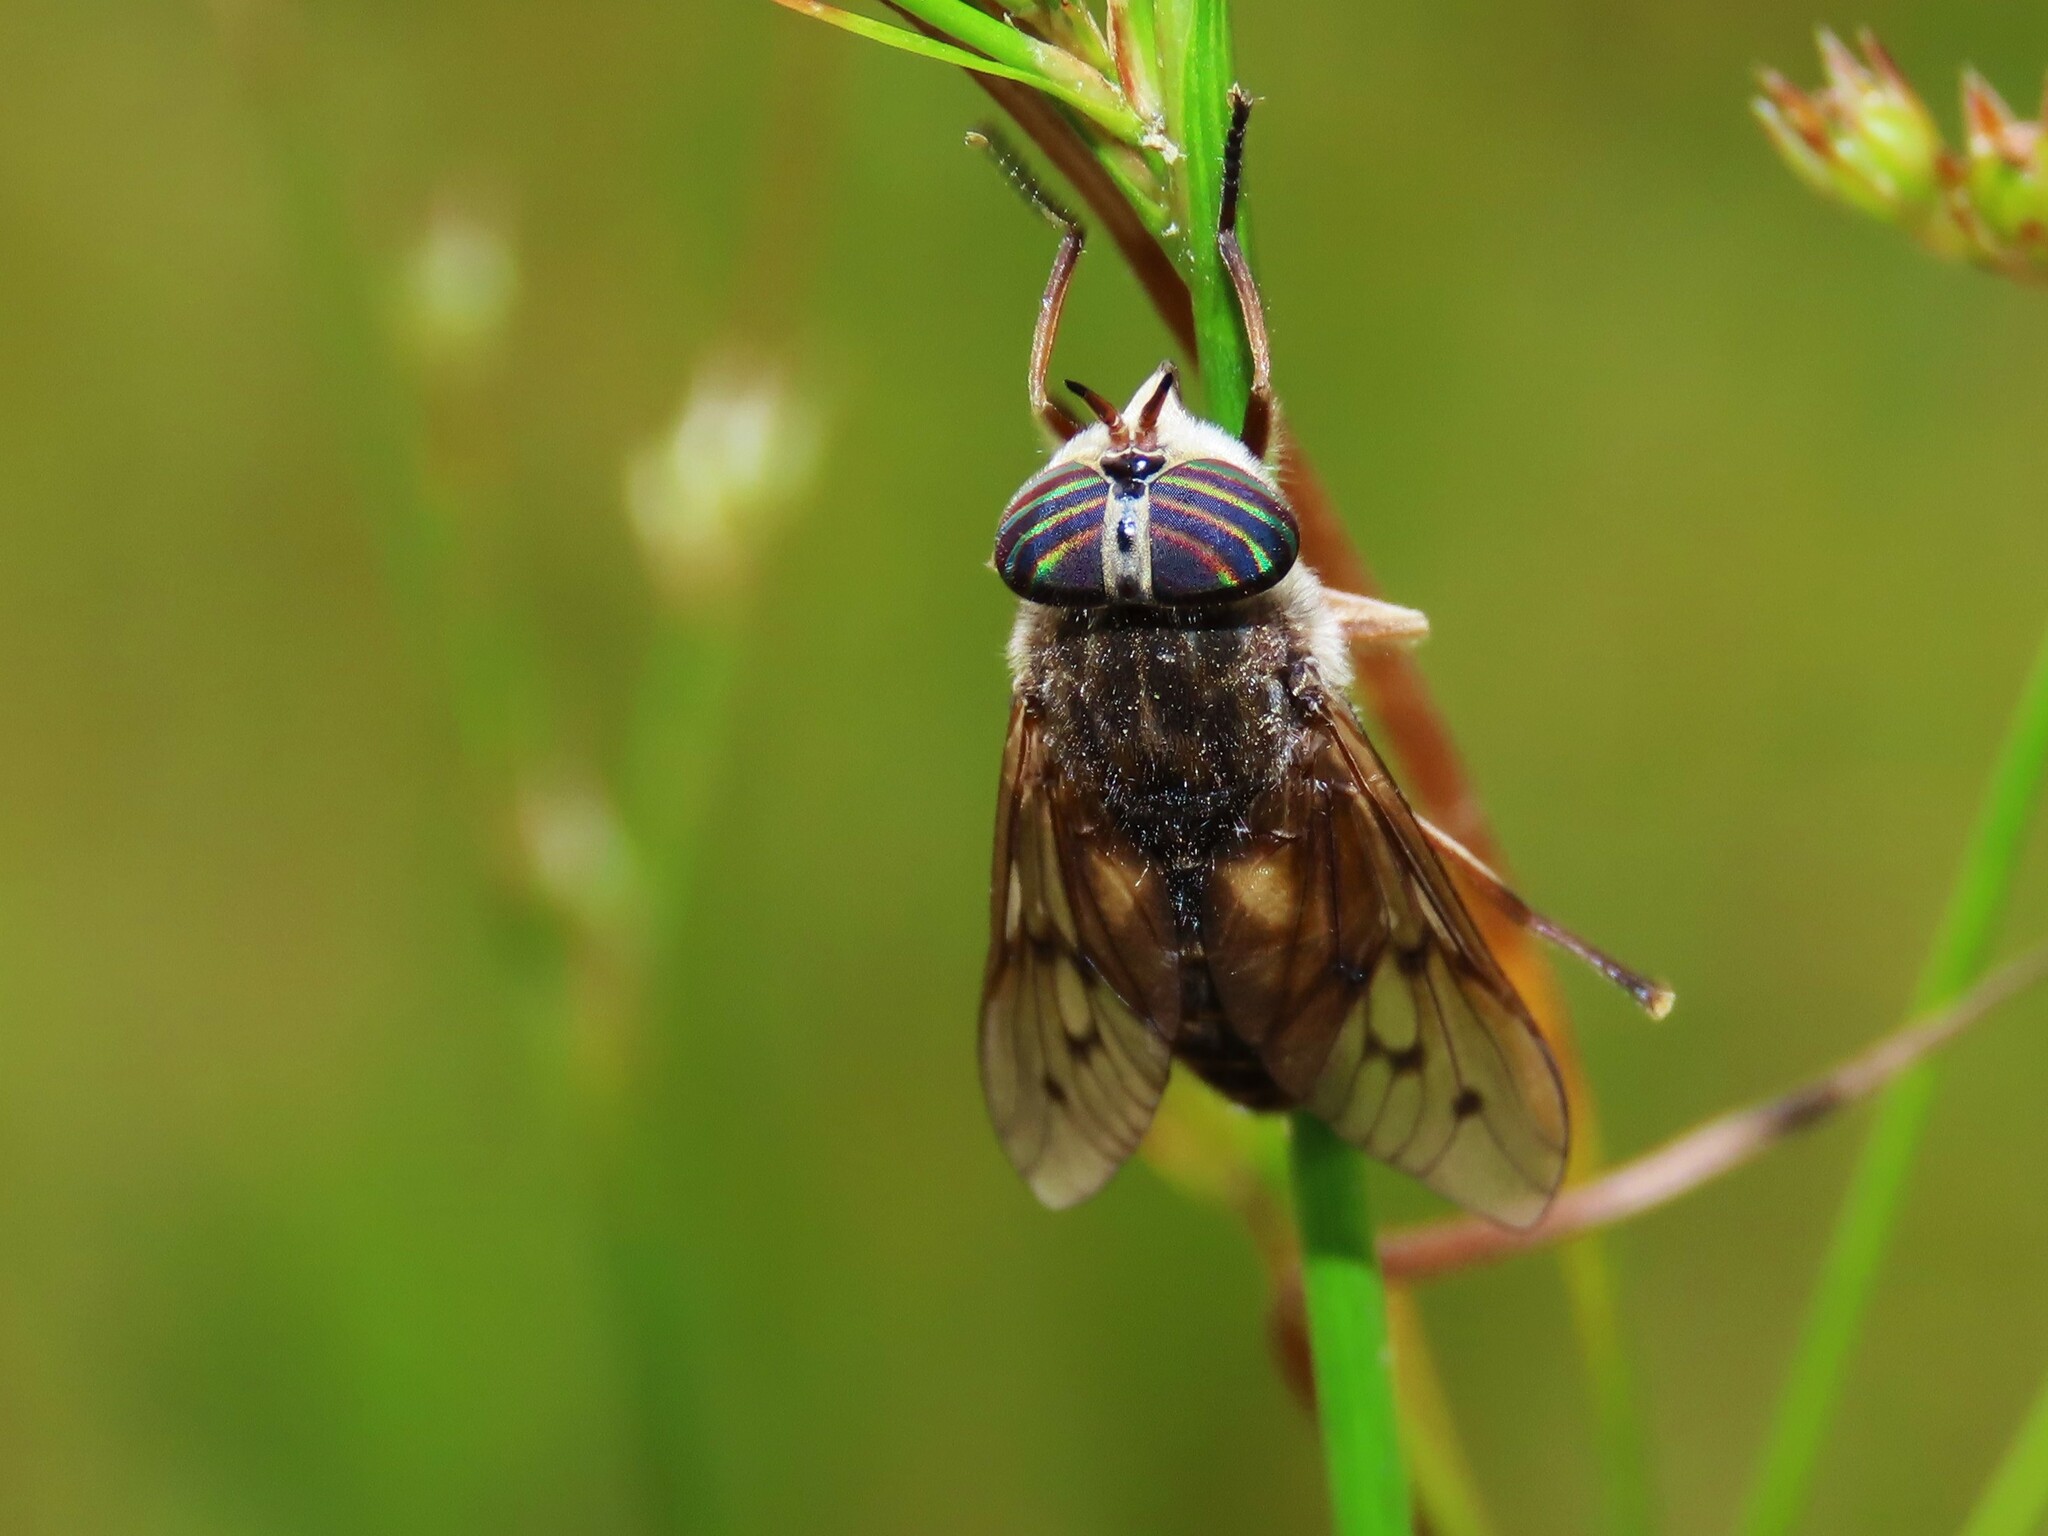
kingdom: Animalia
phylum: Arthropoda
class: Insecta
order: Diptera
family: Tabanidae
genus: Hybomitra
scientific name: Hybomitra lasiophthalma
